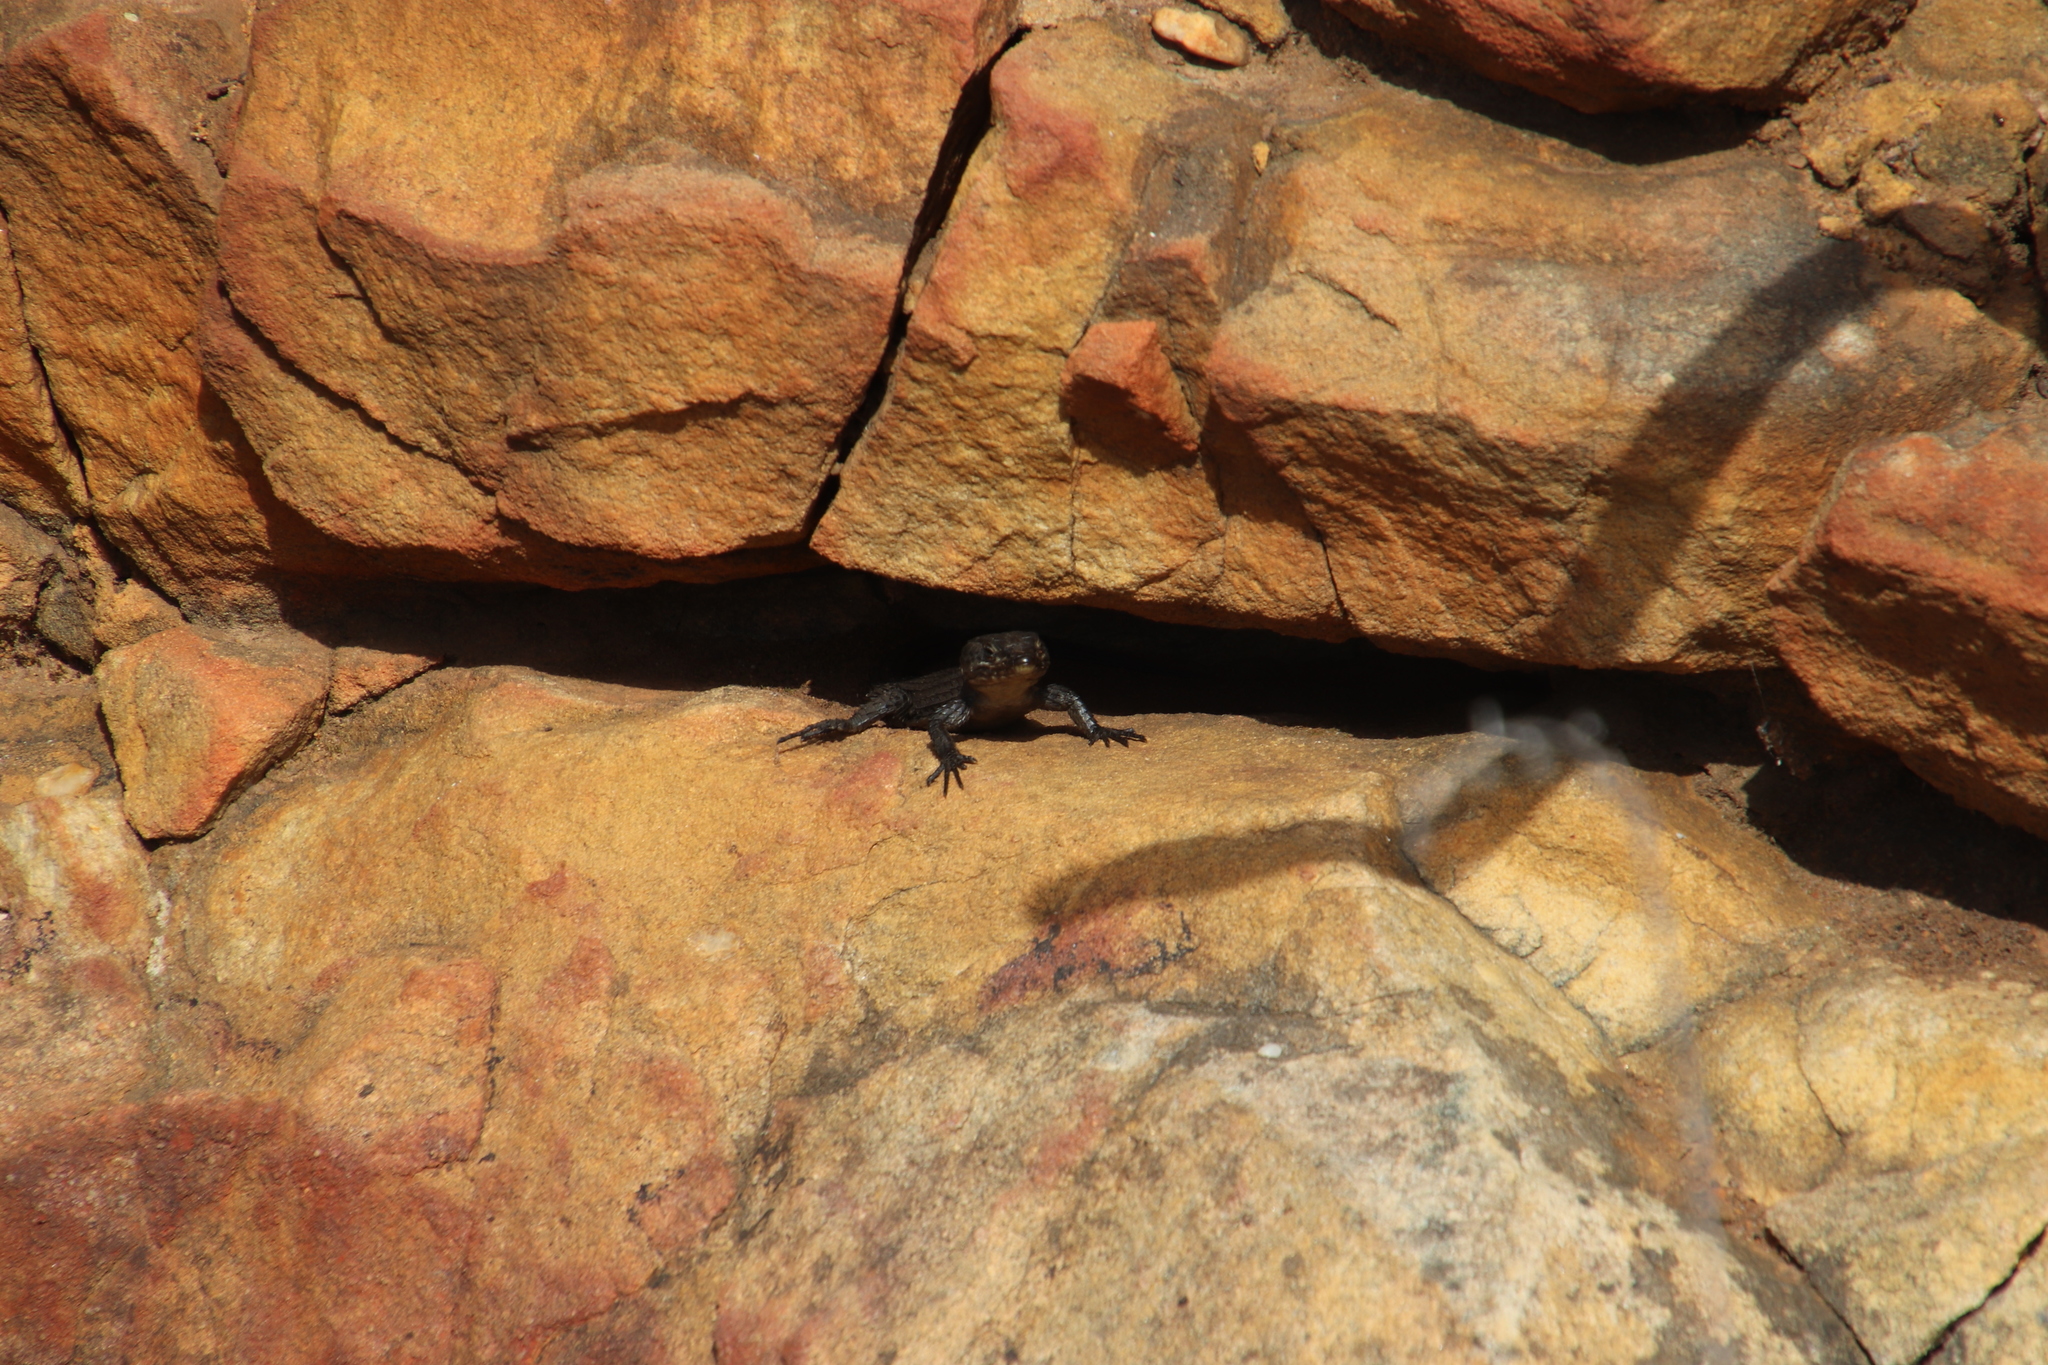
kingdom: Animalia
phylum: Chordata
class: Squamata
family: Cordylidae
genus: Cordylus
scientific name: Cordylus niger
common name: Black girdled lizard
